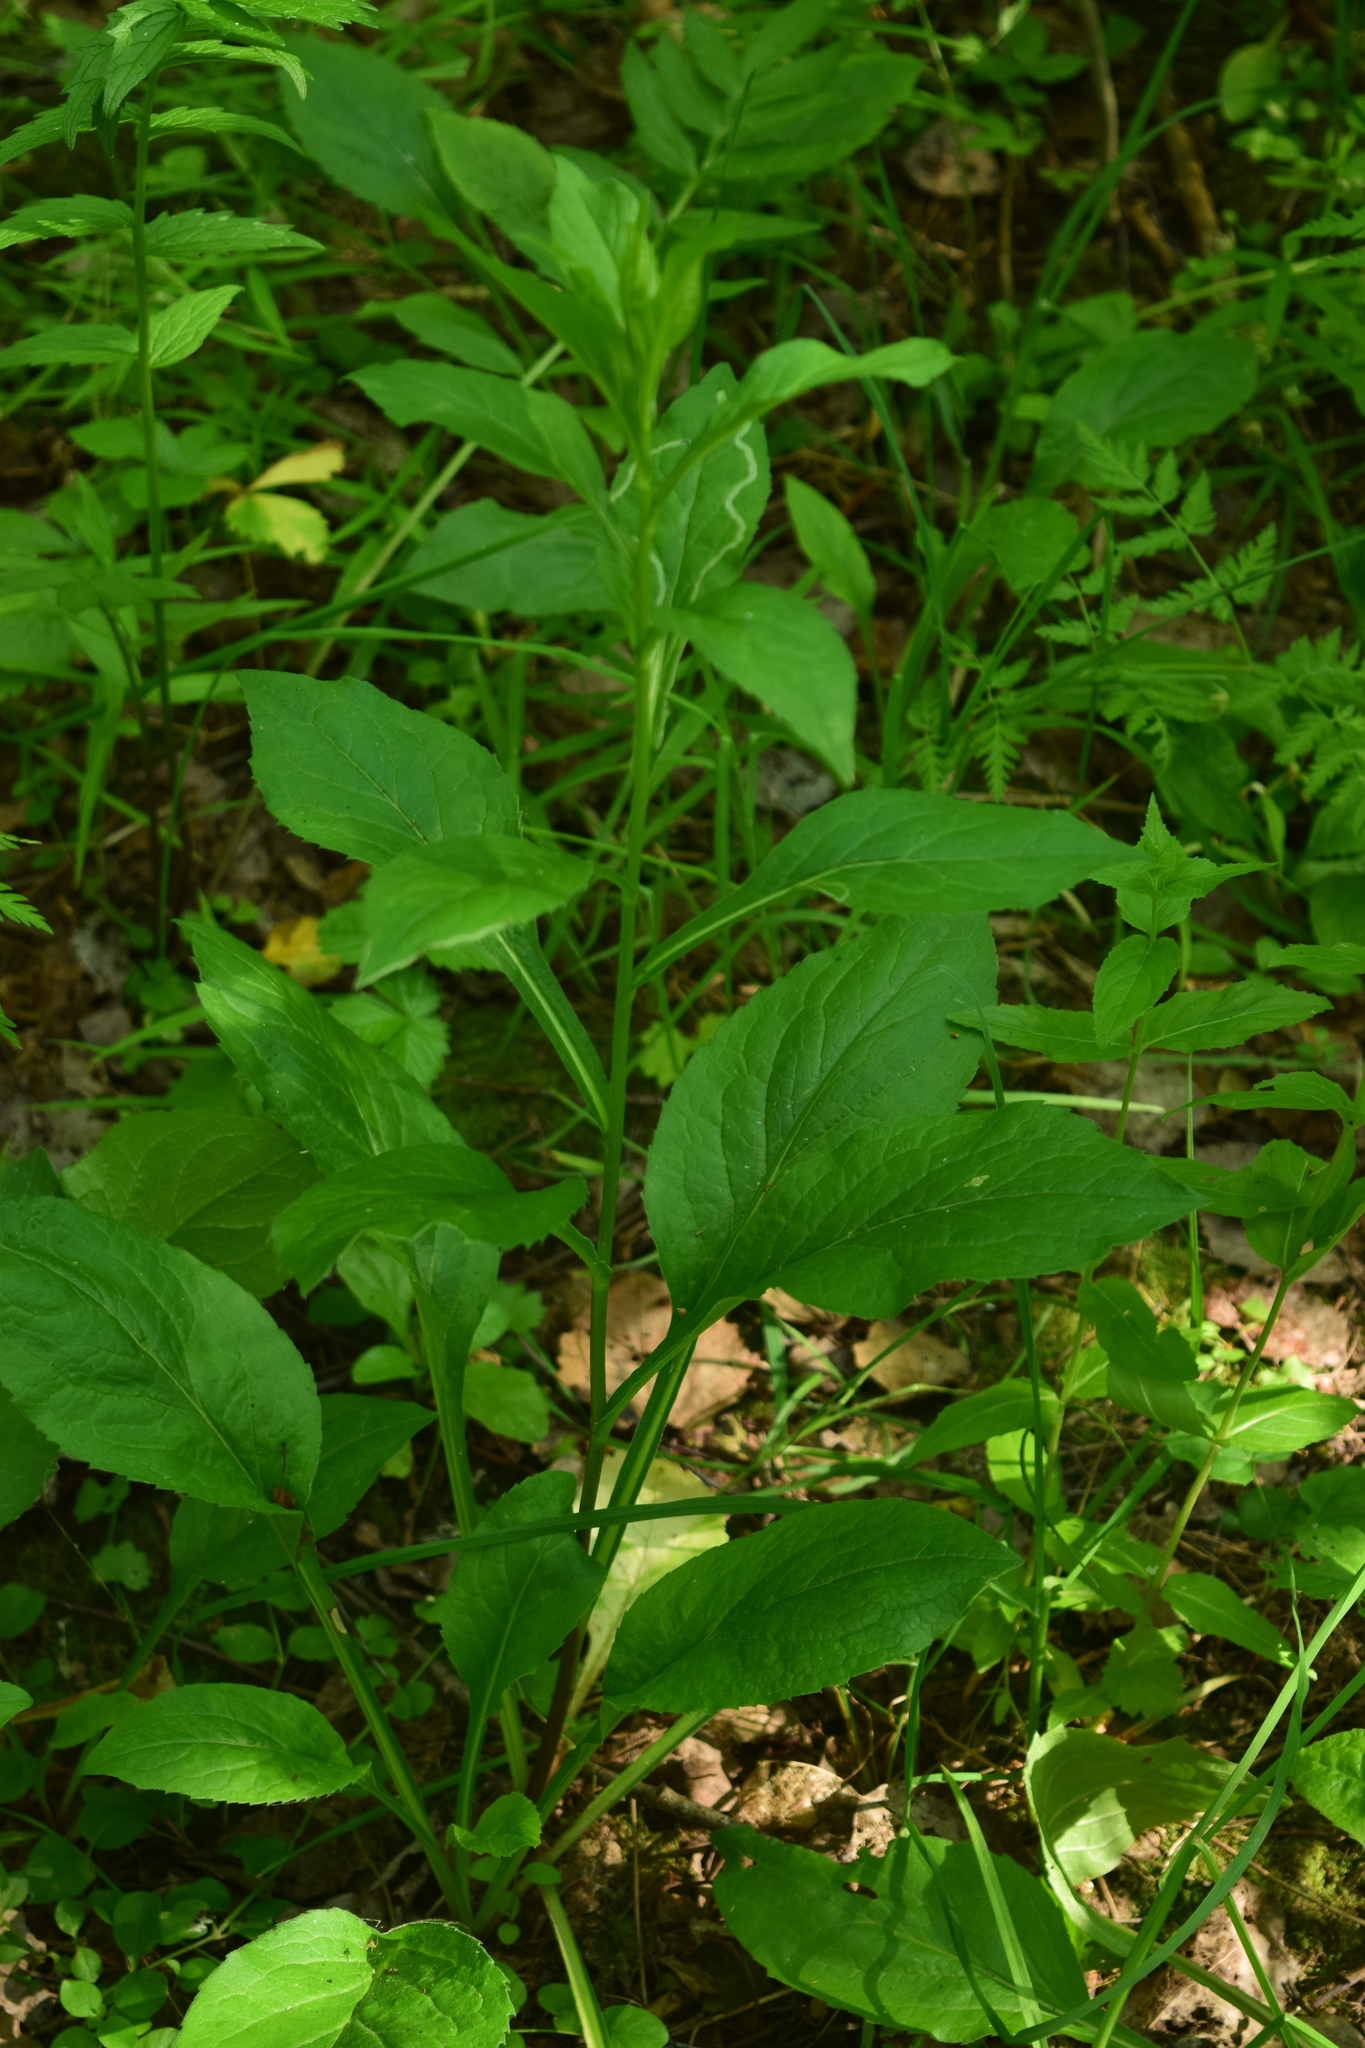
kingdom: Plantae
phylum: Tracheophyta
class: Magnoliopsida
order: Asterales
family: Asteraceae
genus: Solidago
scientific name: Solidago virgaurea
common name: Goldenrod
